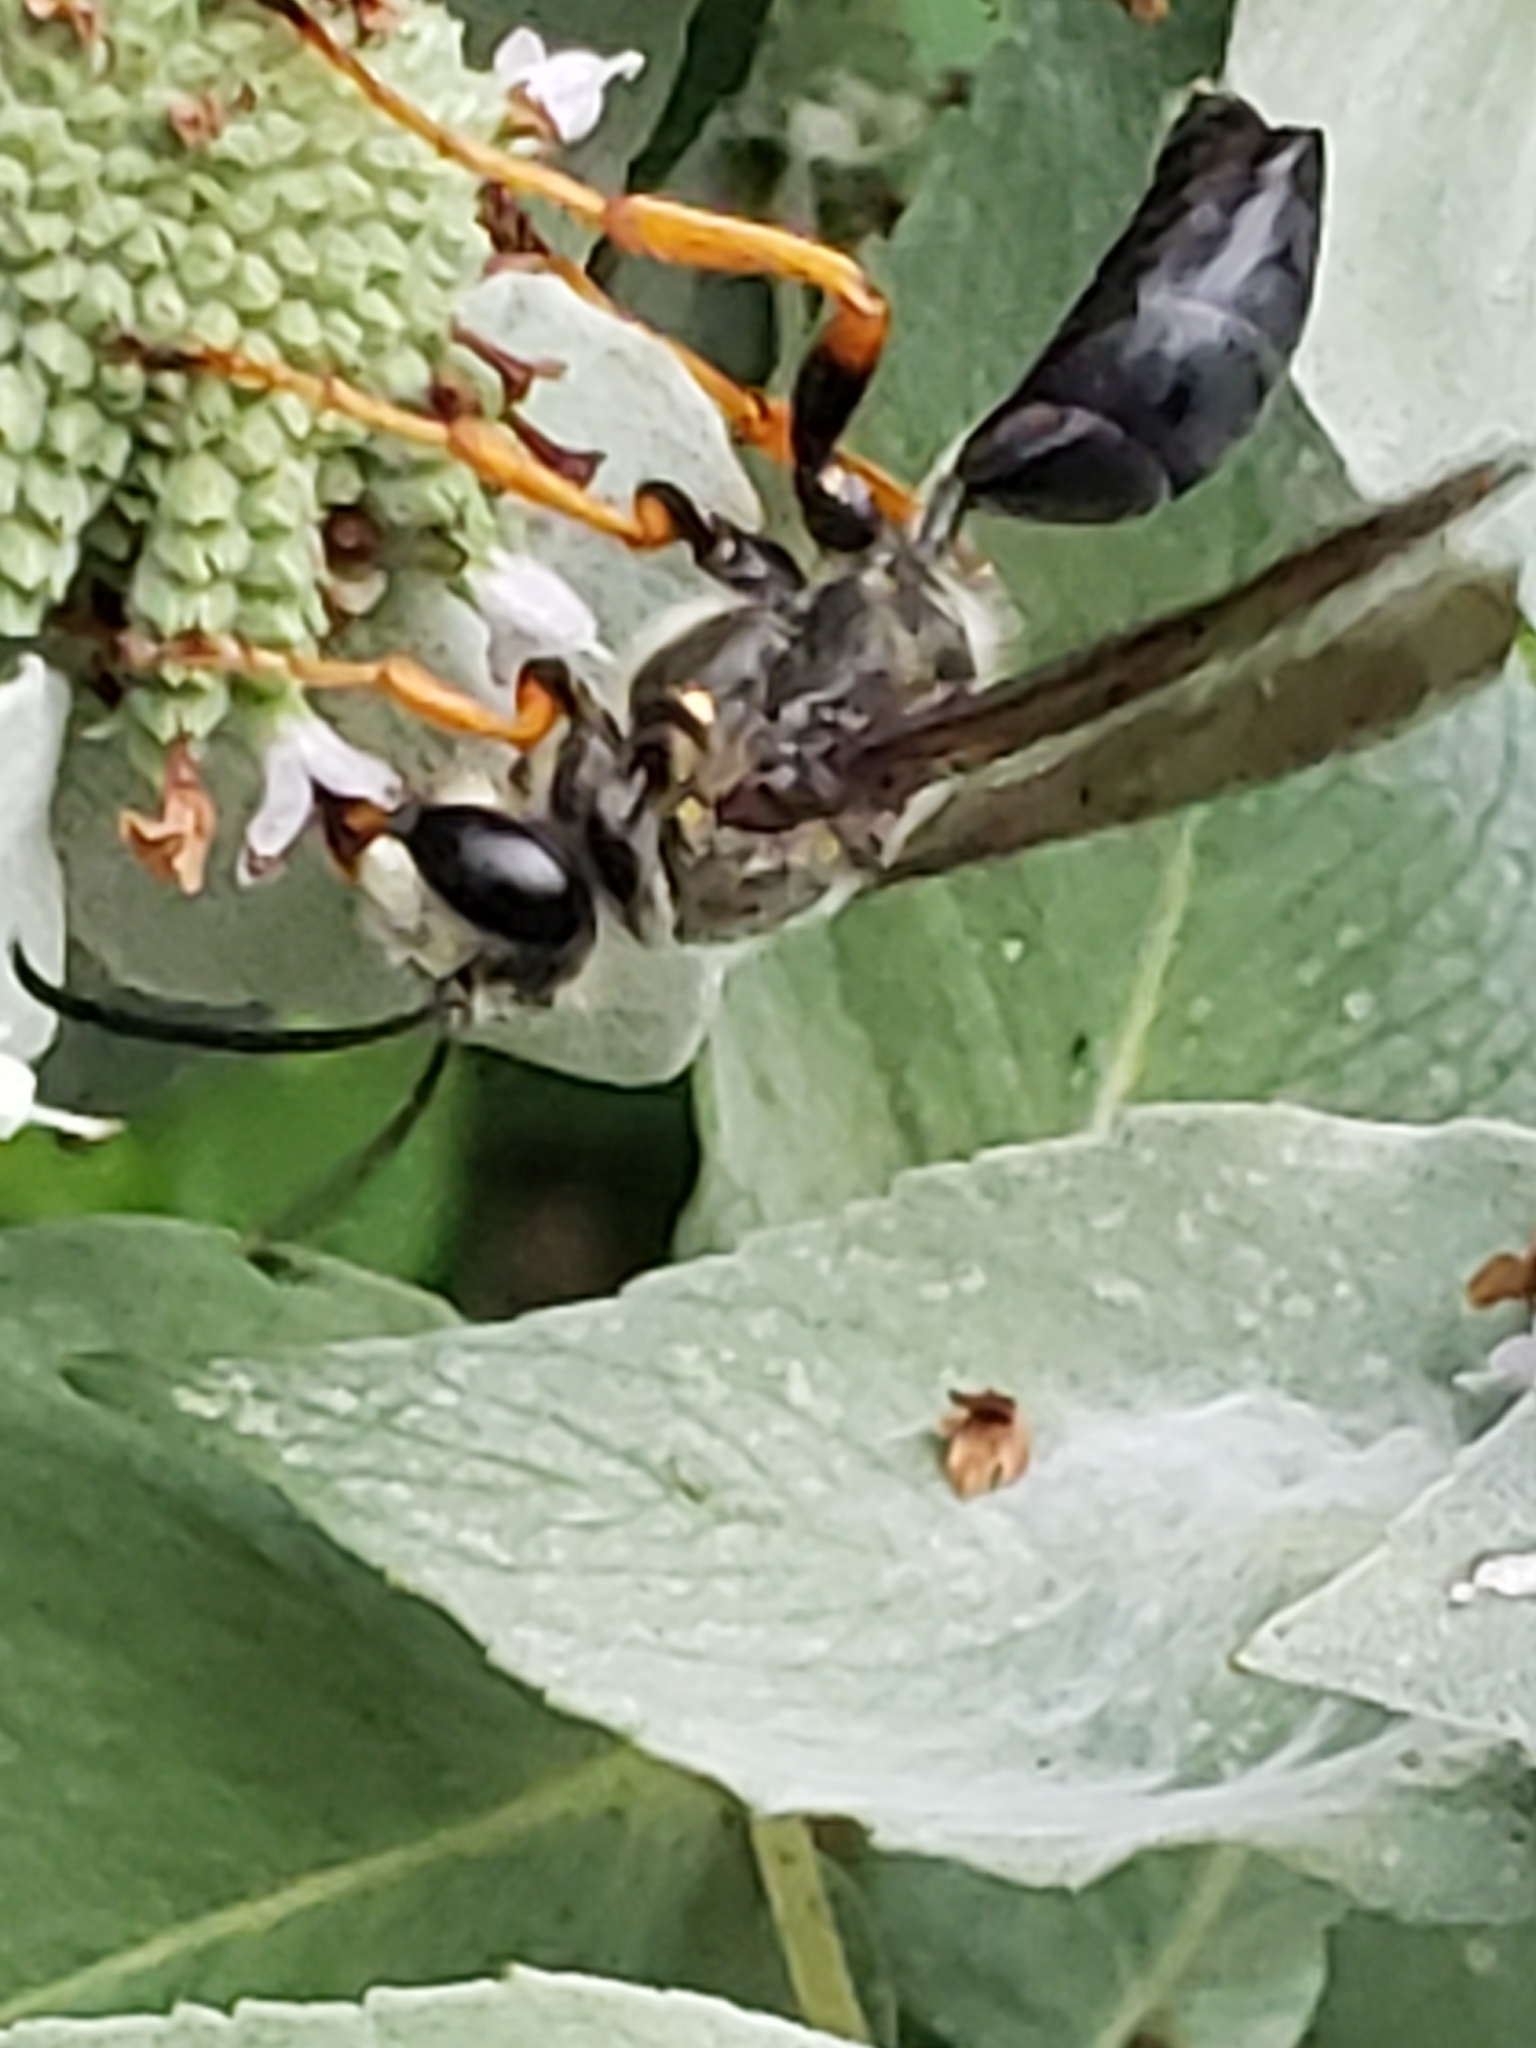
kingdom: Animalia
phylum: Arthropoda
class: Insecta
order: Hymenoptera
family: Sphecidae
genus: Sphex
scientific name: Sphex nudus
